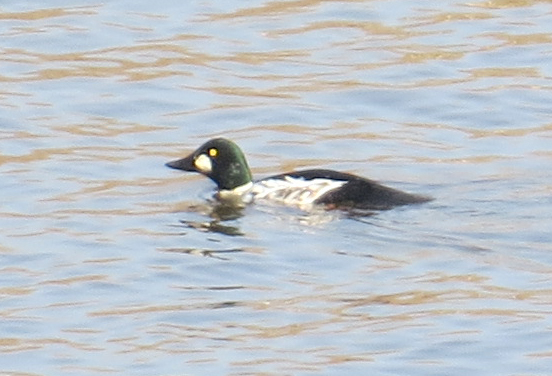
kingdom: Animalia
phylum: Chordata
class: Aves
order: Anseriformes
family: Anatidae
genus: Bucephala
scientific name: Bucephala clangula
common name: Common goldeneye
